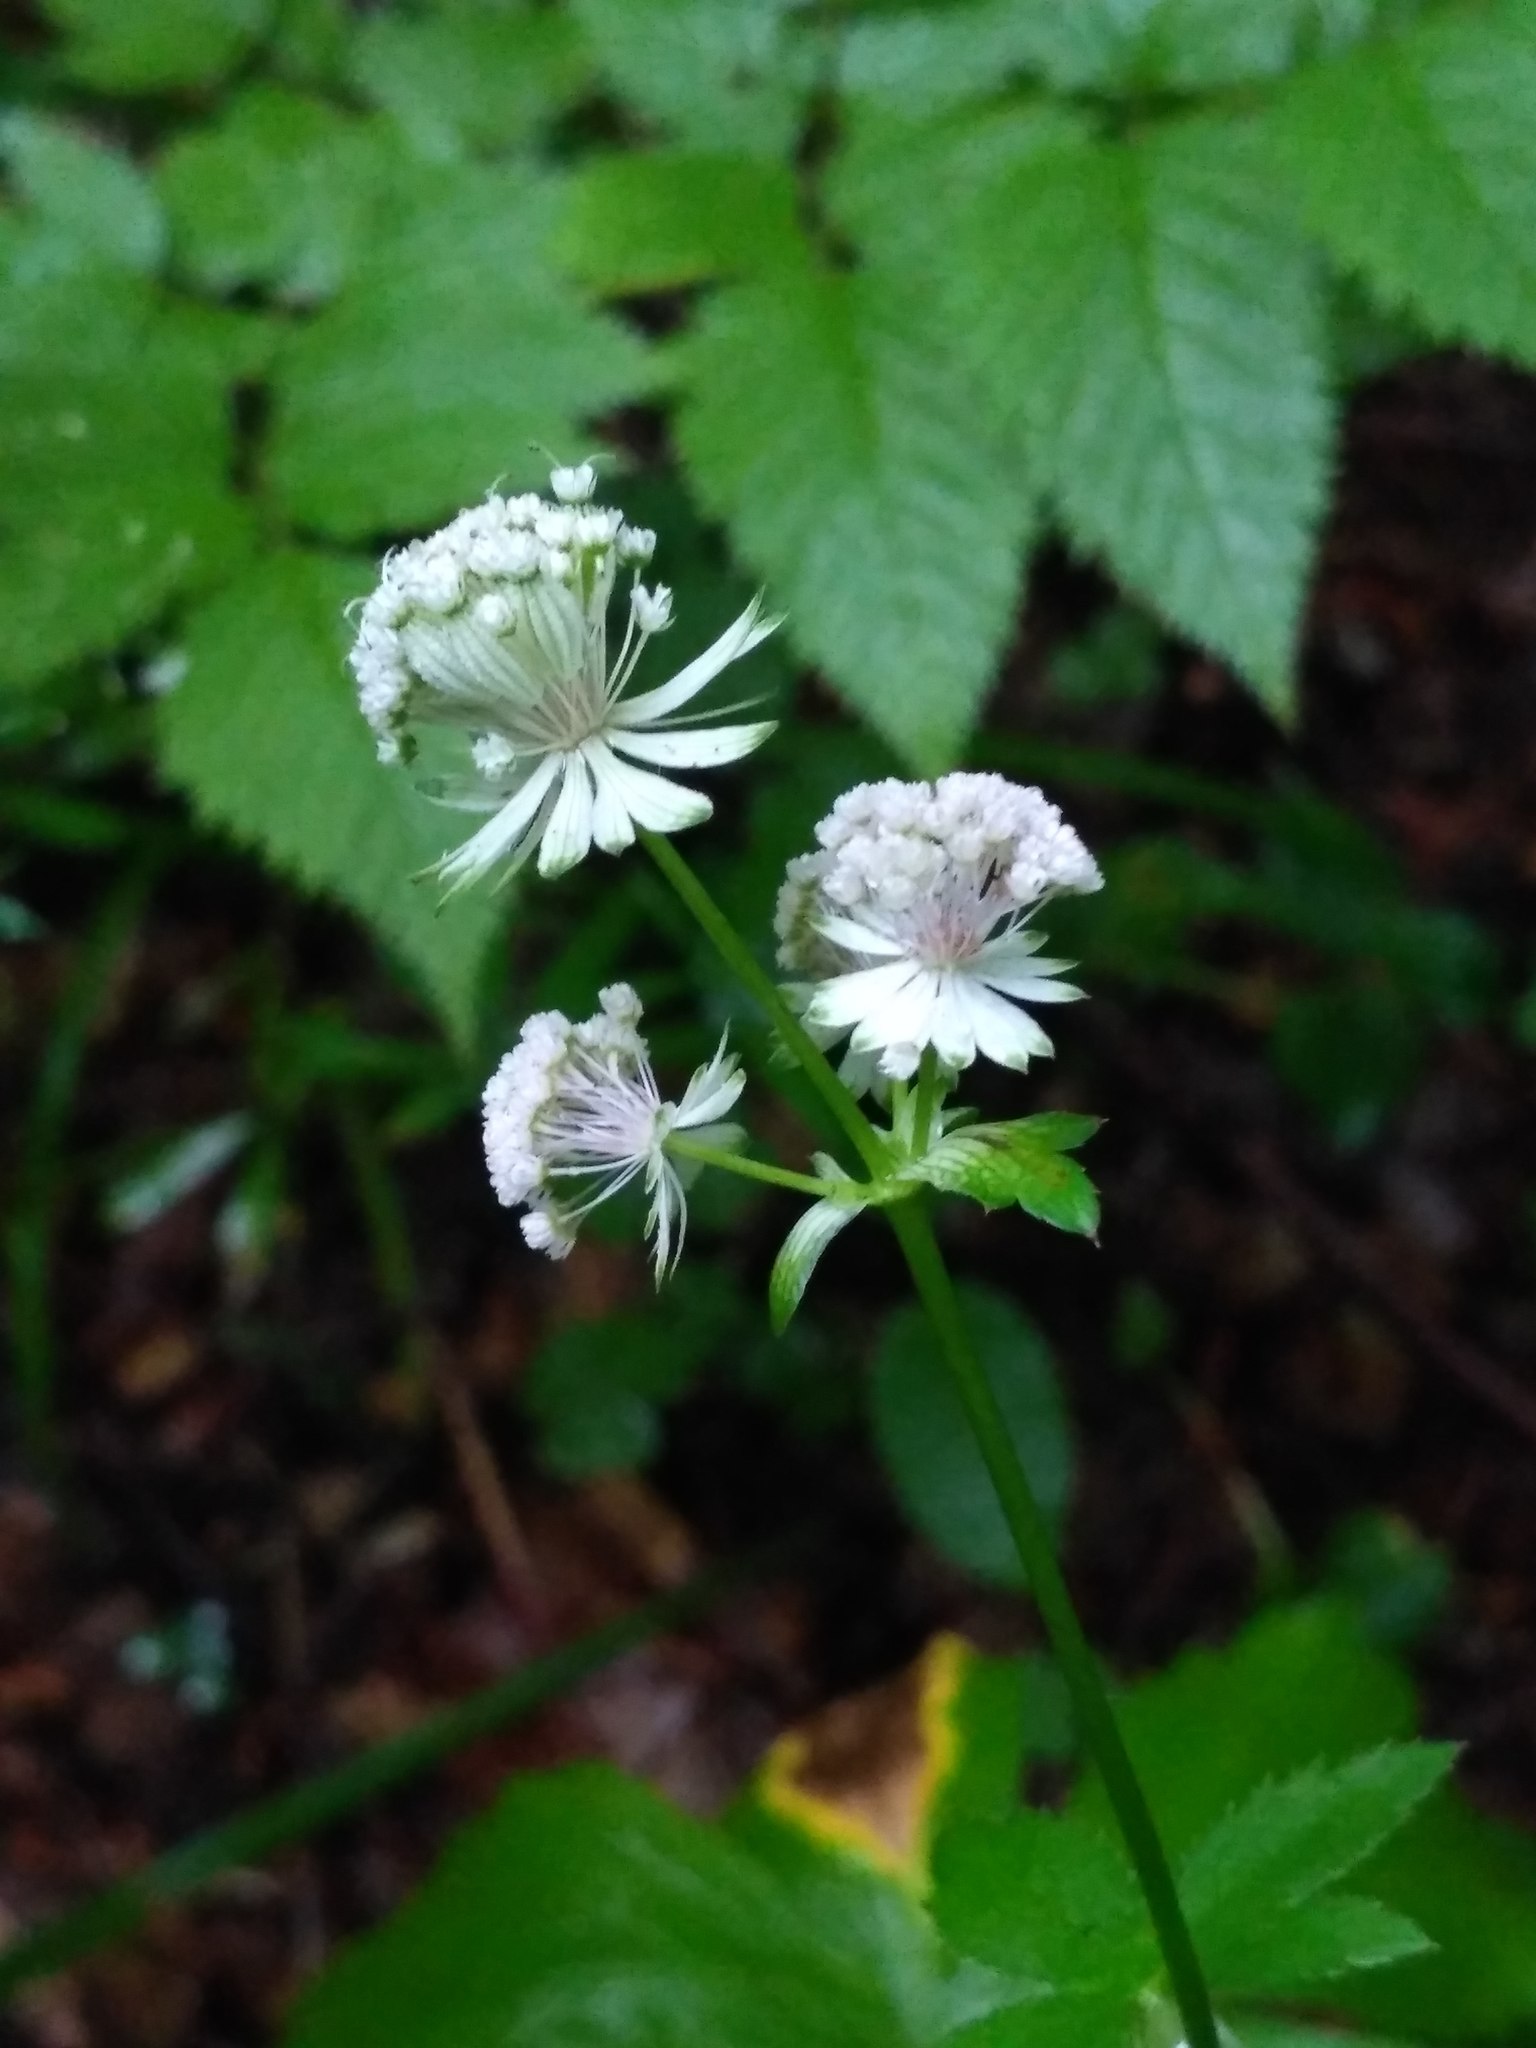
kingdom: Plantae
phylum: Tracheophyta
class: Magnoliopsida
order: Apiales
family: Apiaceae
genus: Astrantia
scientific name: Astrantia major
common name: Greater masterwort
